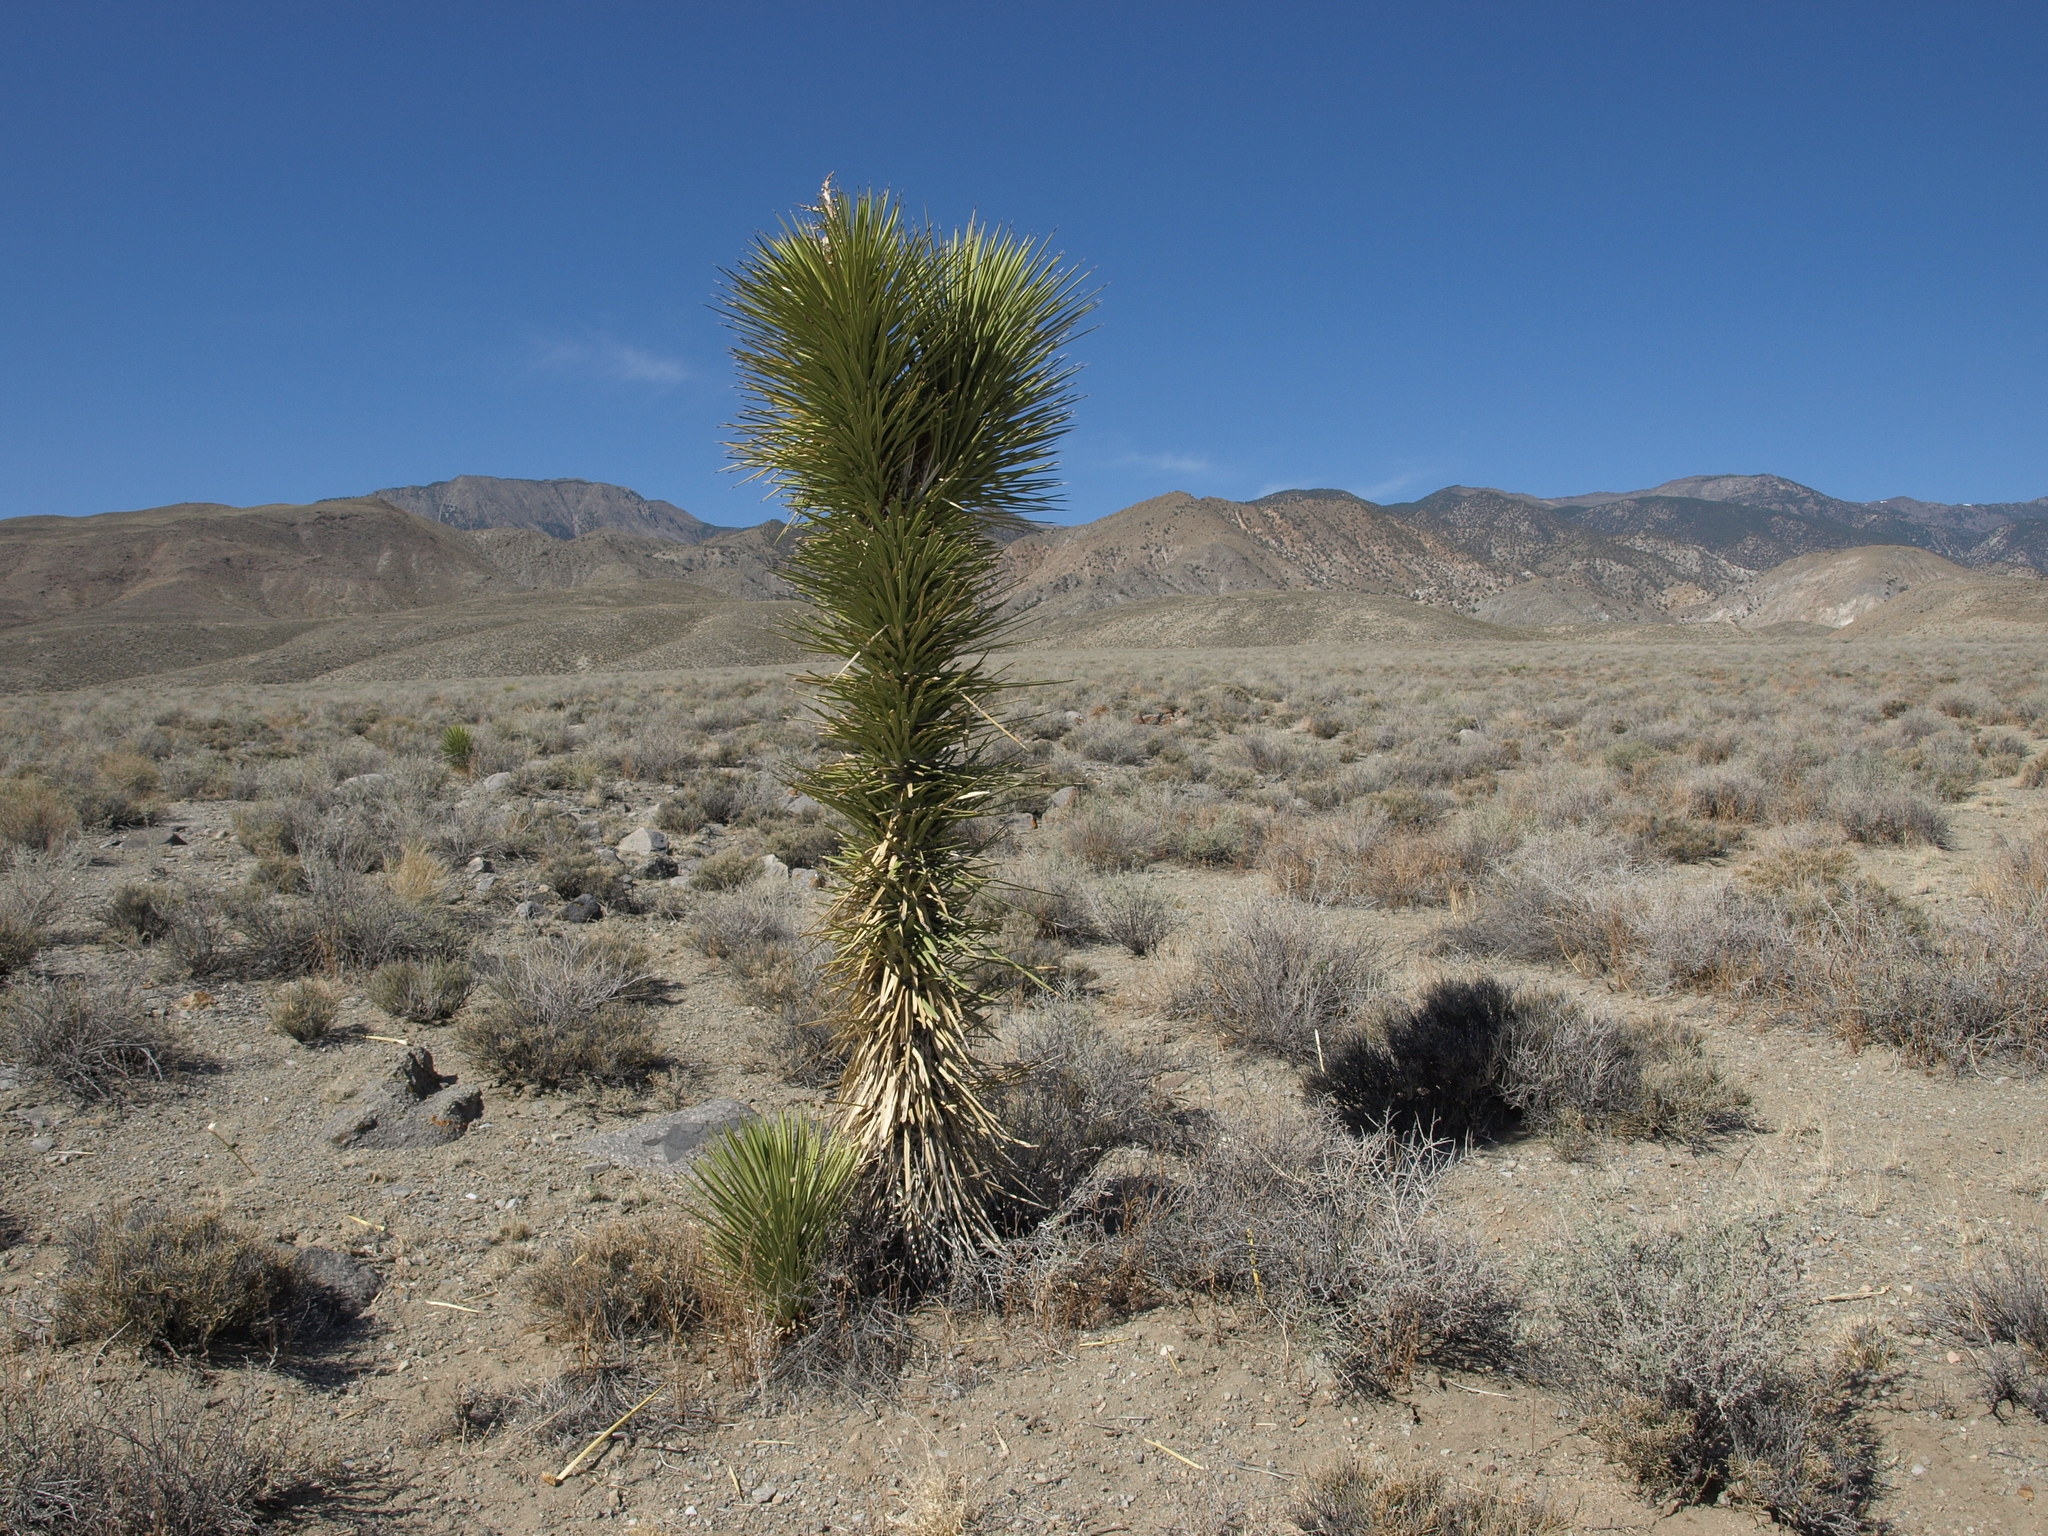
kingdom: Plantae
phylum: Tracheophyta
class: Liliopsida
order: Asparagales
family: Asparagaceae
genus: Yucca
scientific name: Yucca brevifolia
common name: Joshua tree
